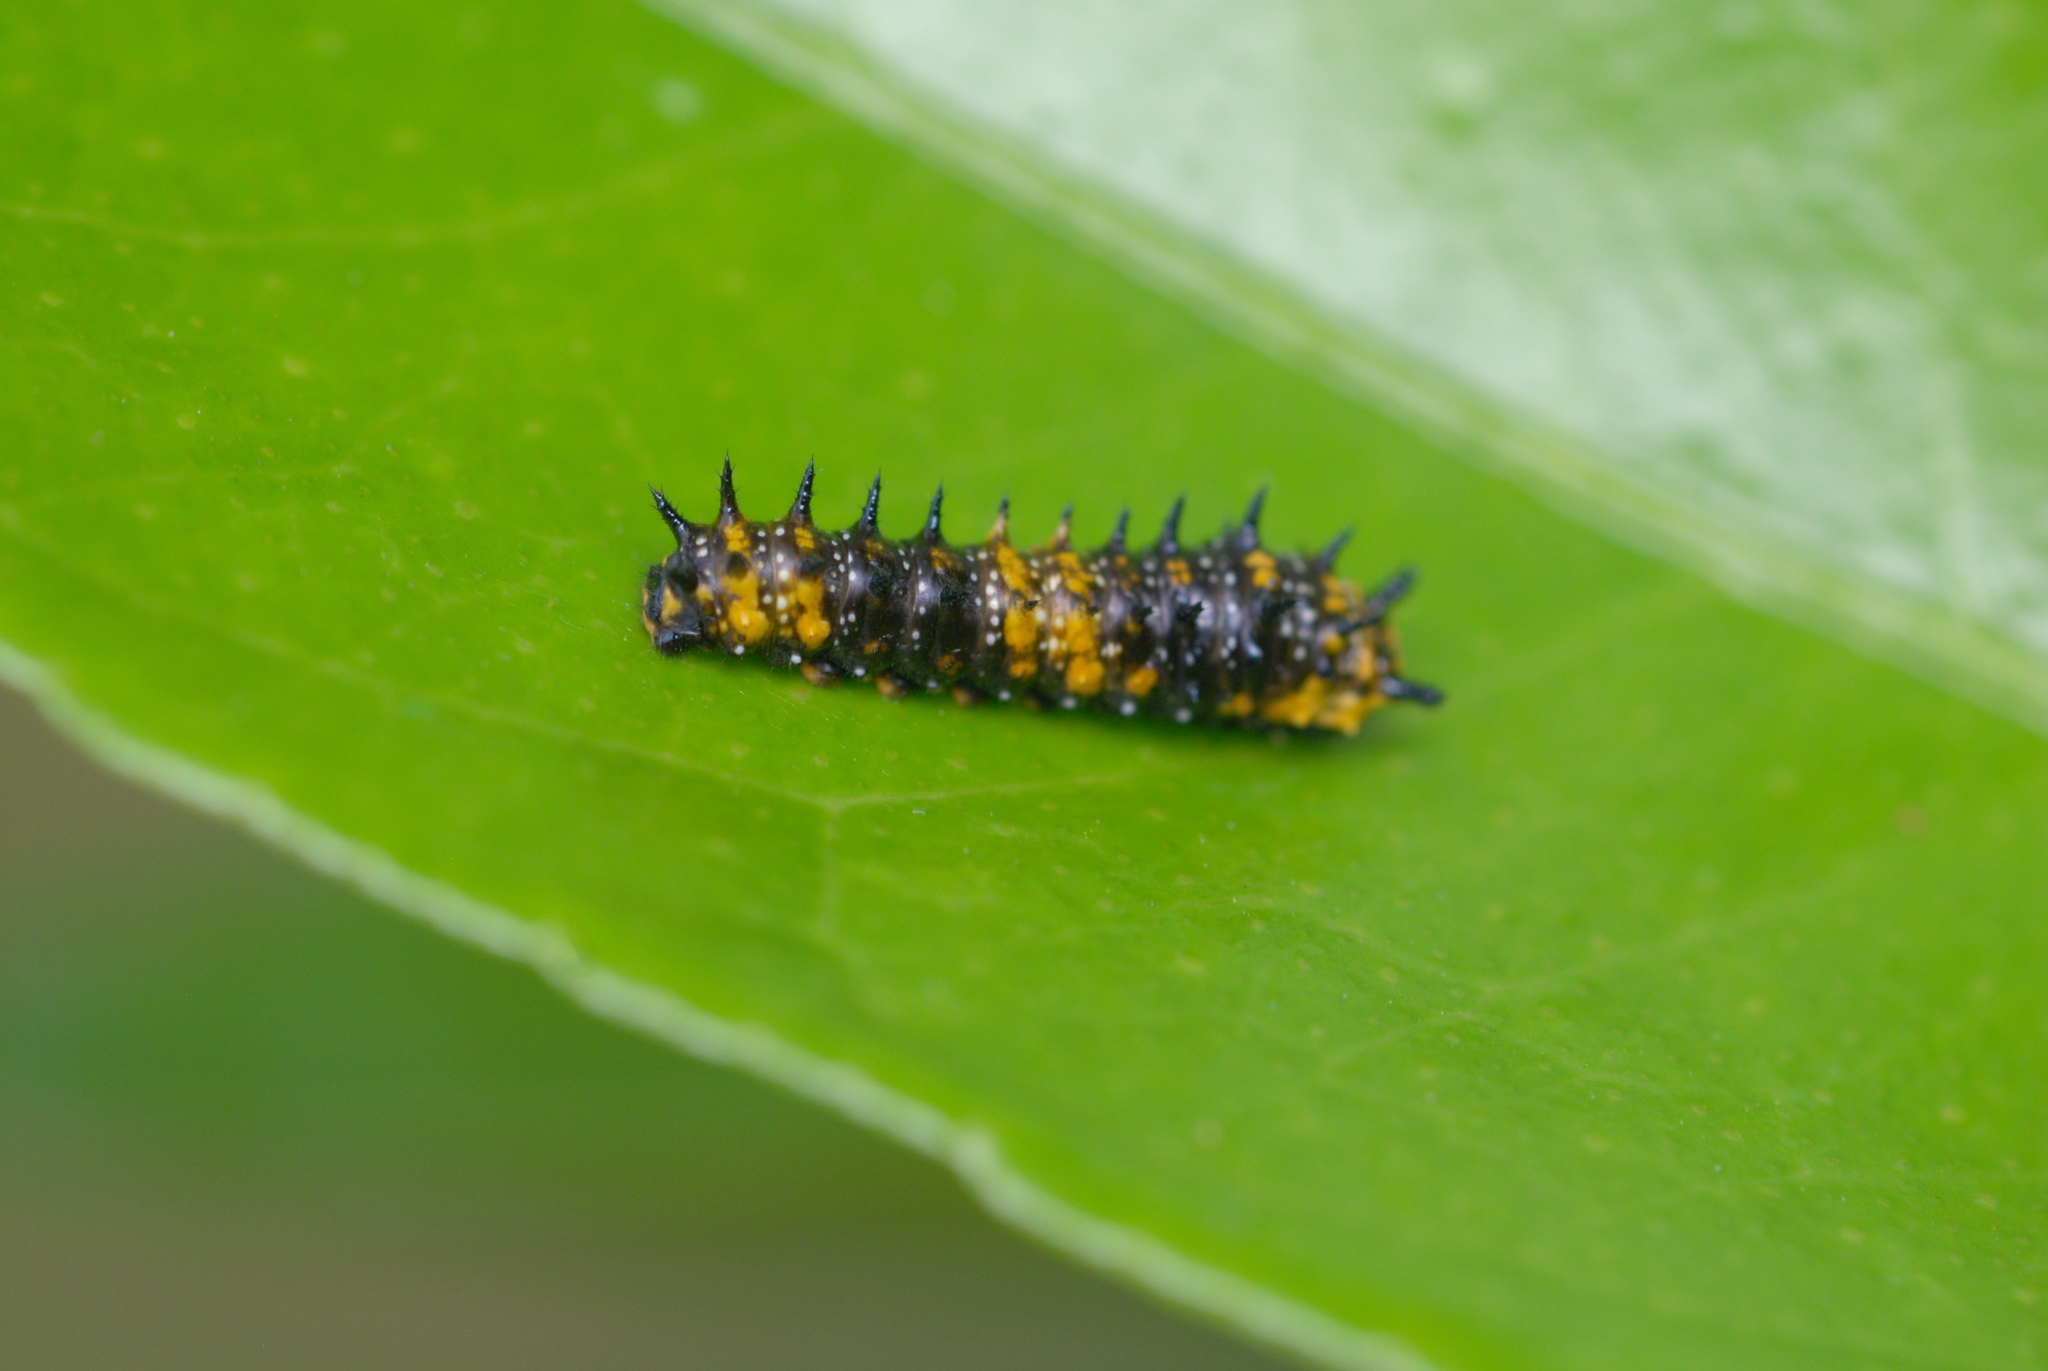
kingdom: Animalia
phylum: Arthropoda
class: Insecta
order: Lepidoptera
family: Papilionidae
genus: Papilio
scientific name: Papilio anactus
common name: Dingy swallowtail
